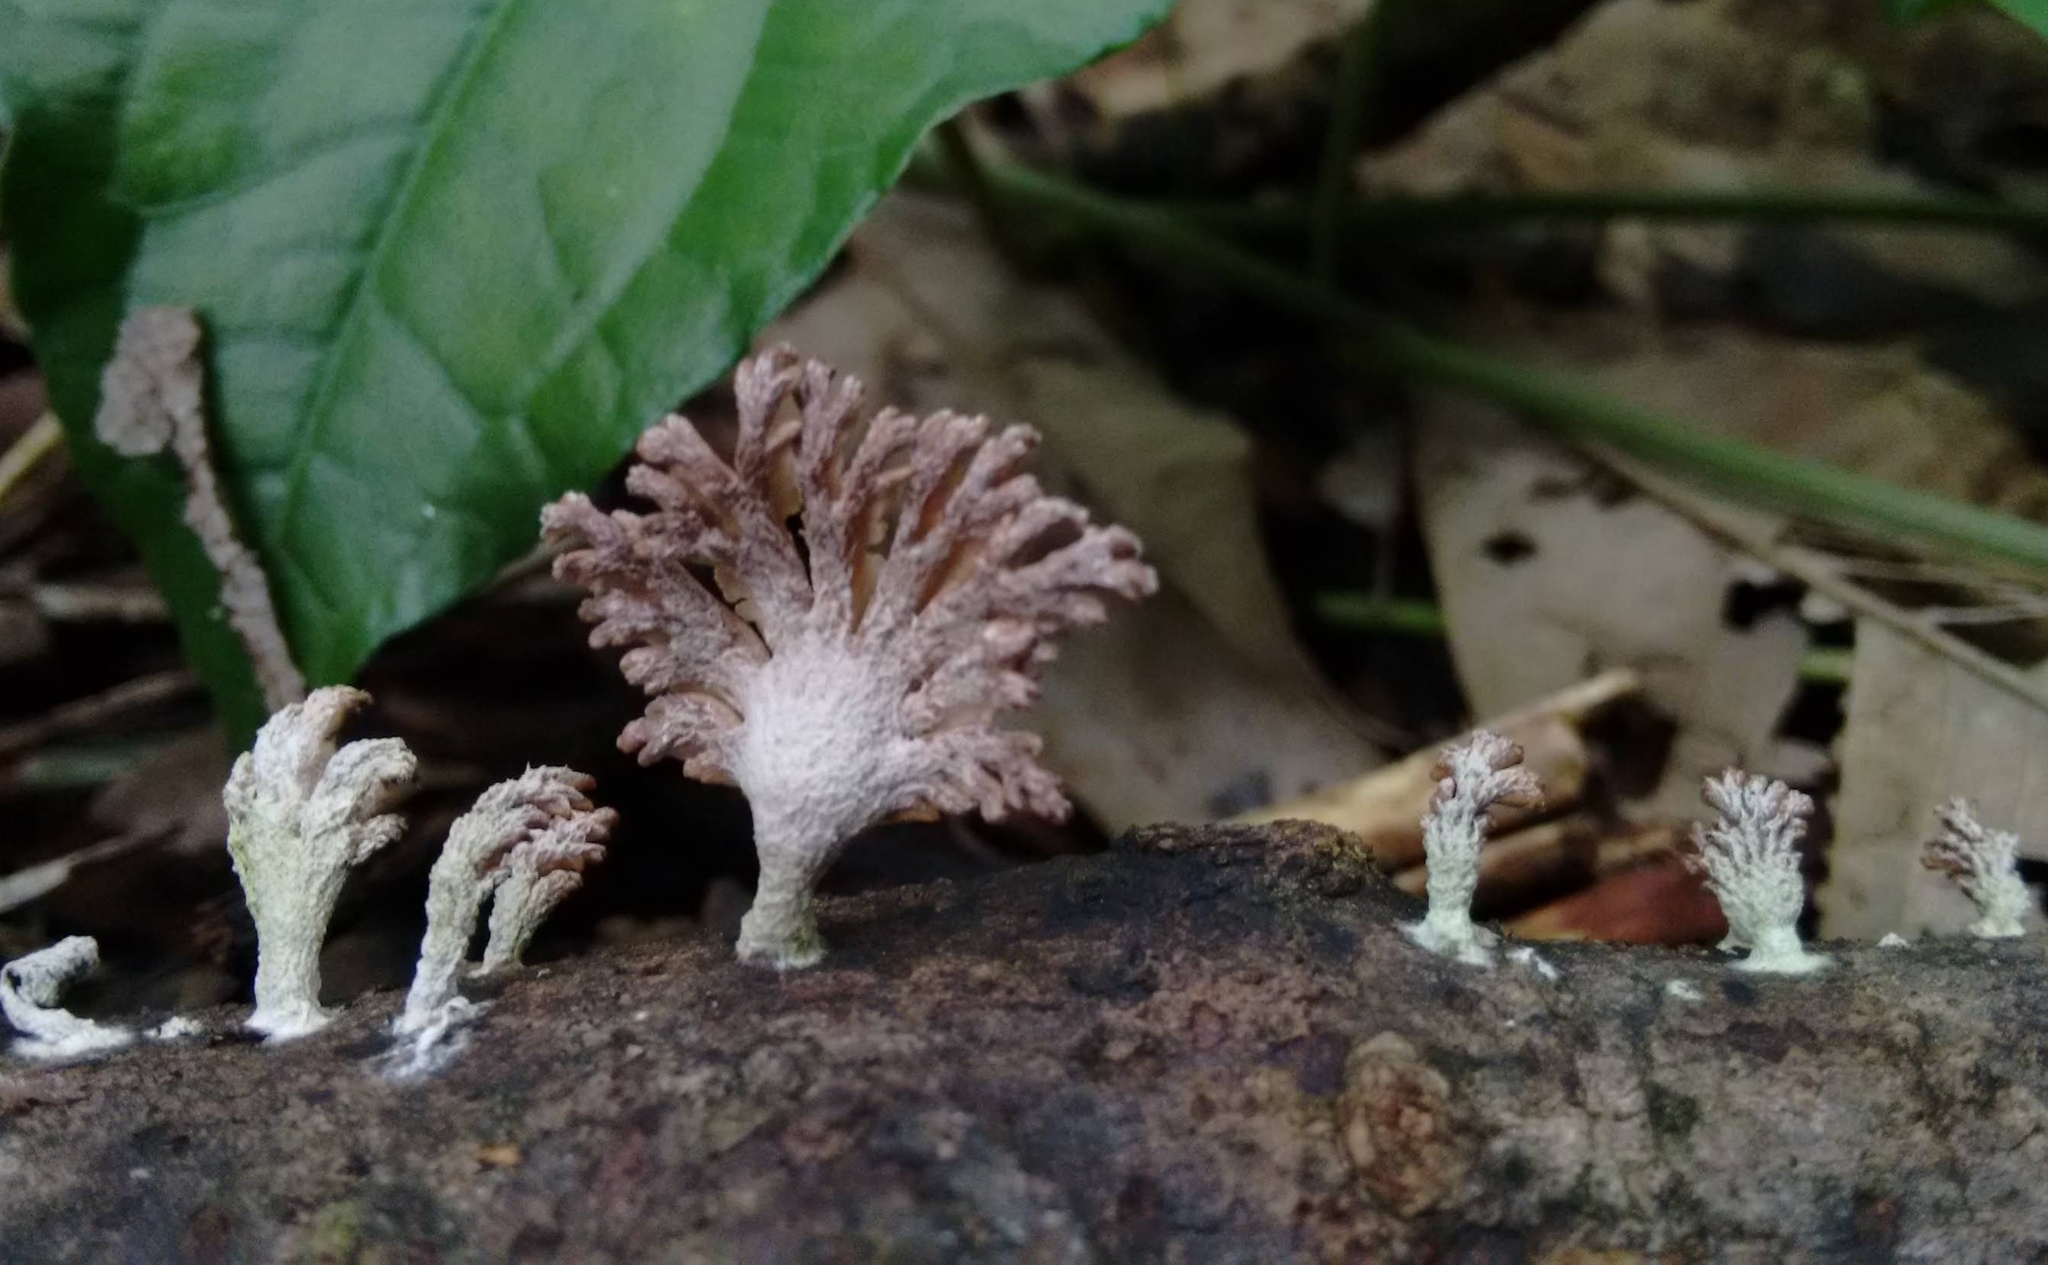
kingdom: Fungi
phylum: Basidiomycota
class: Agaricomycetes
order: Agaricales
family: Schizophyllaceae
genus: Schizophyllum
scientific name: Schizophyllum commune
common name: Common porecrust
